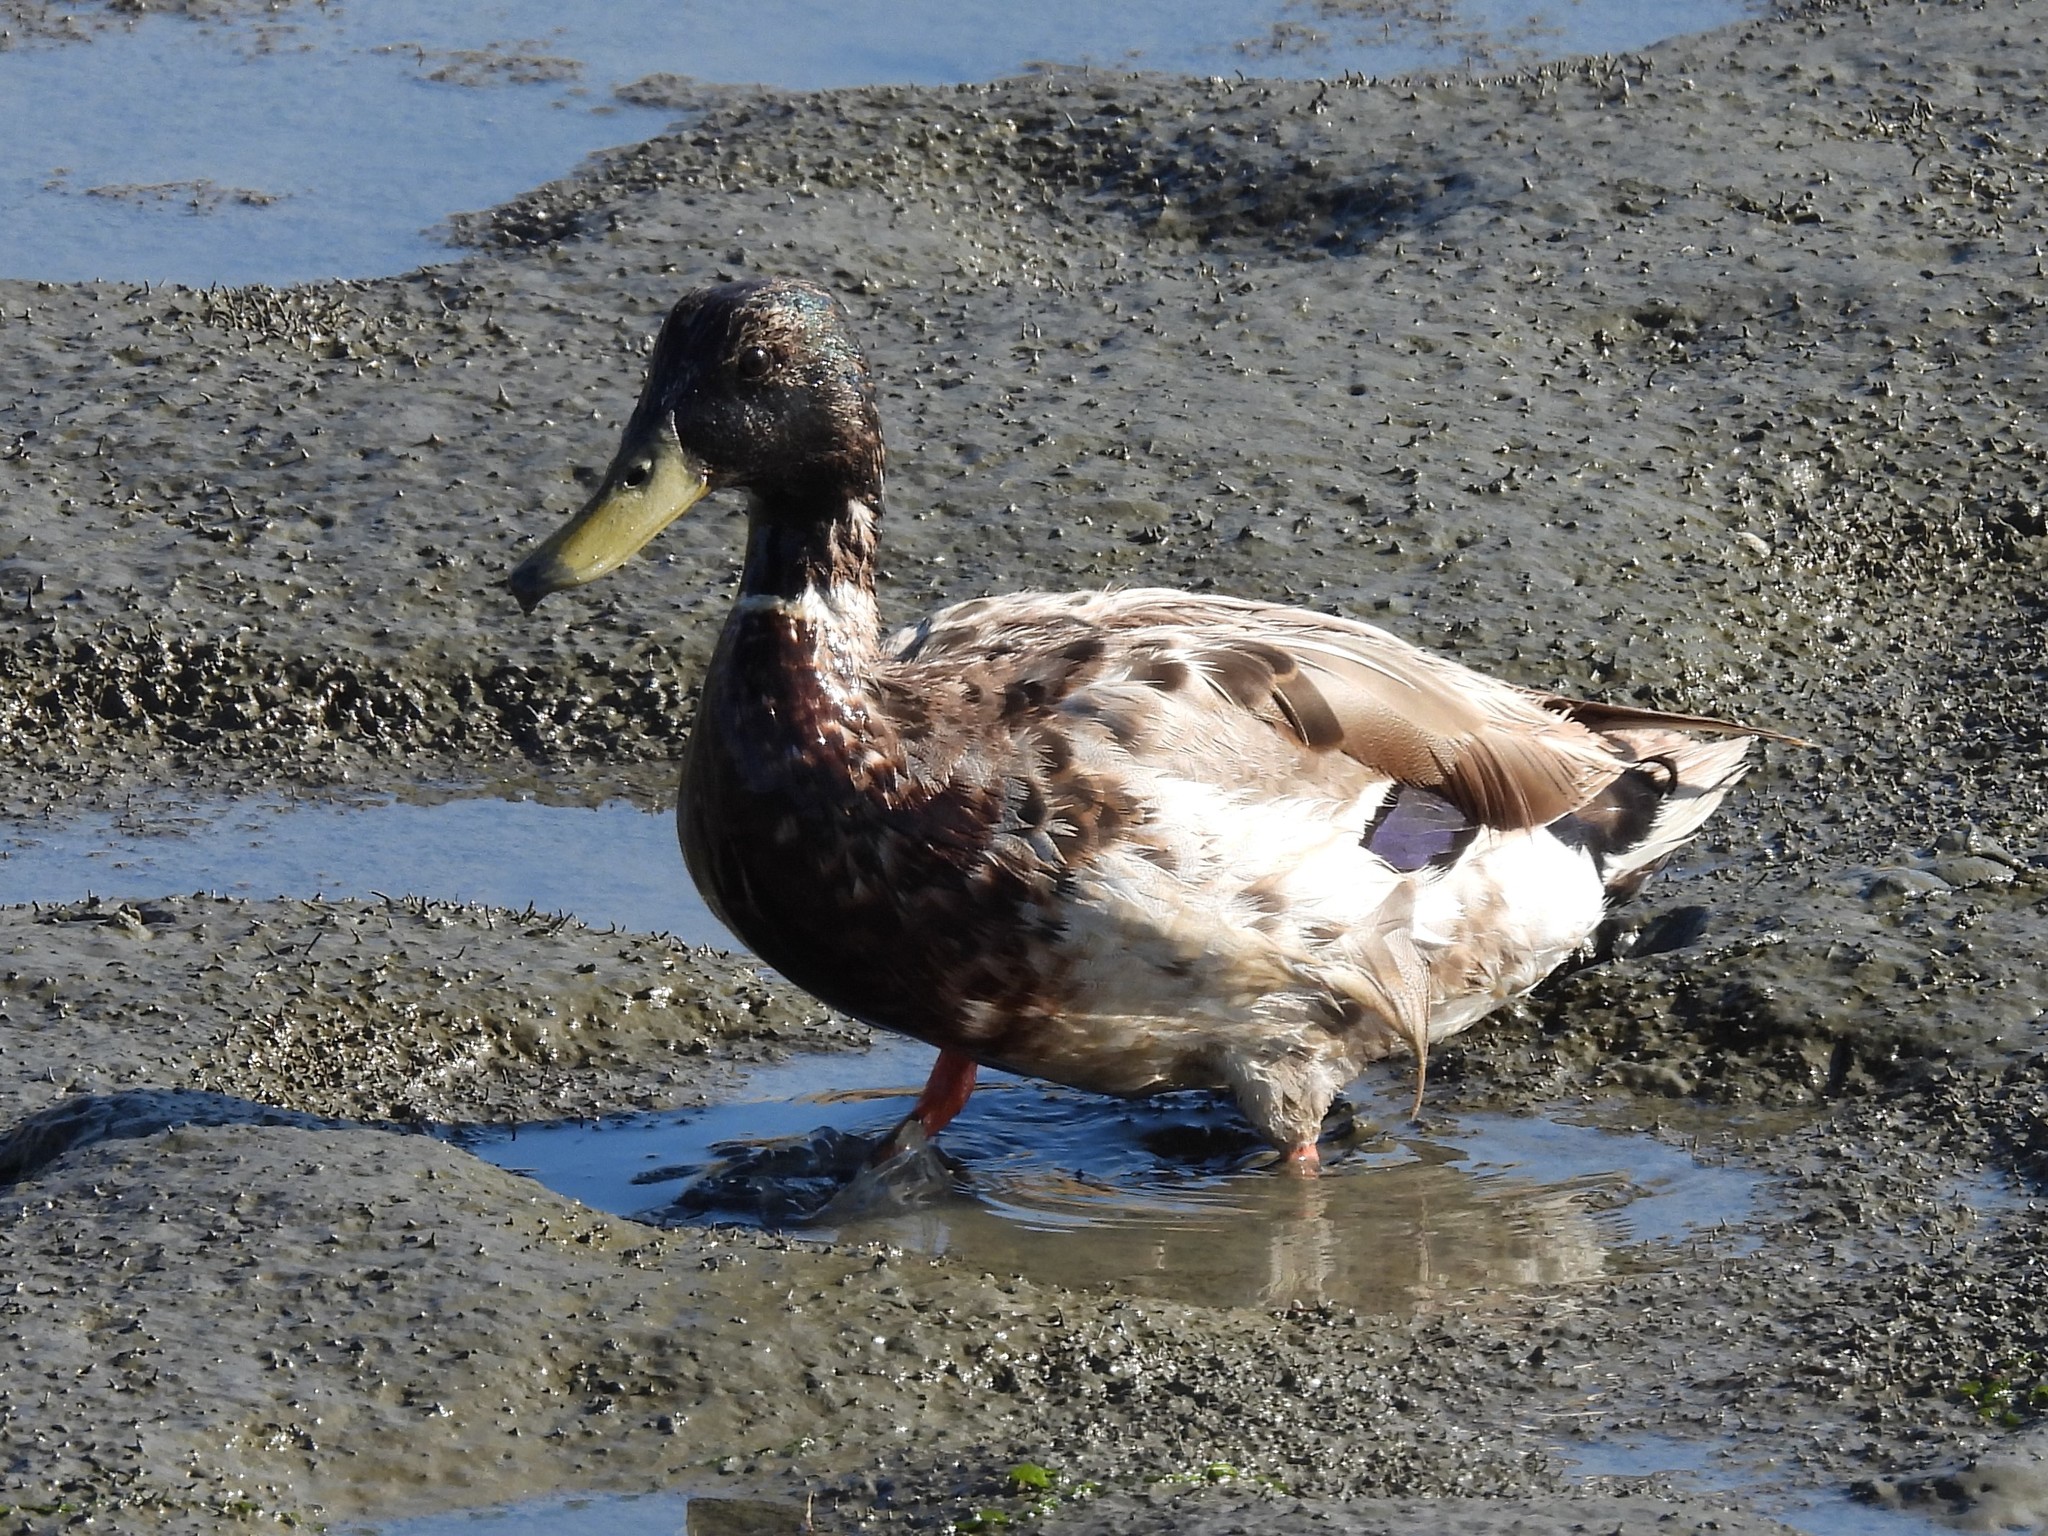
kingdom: Animalia
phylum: Chordata
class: Aves
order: Anseriformes
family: Anatidae
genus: Anas
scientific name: Anas platyrhynchos
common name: Mallard
